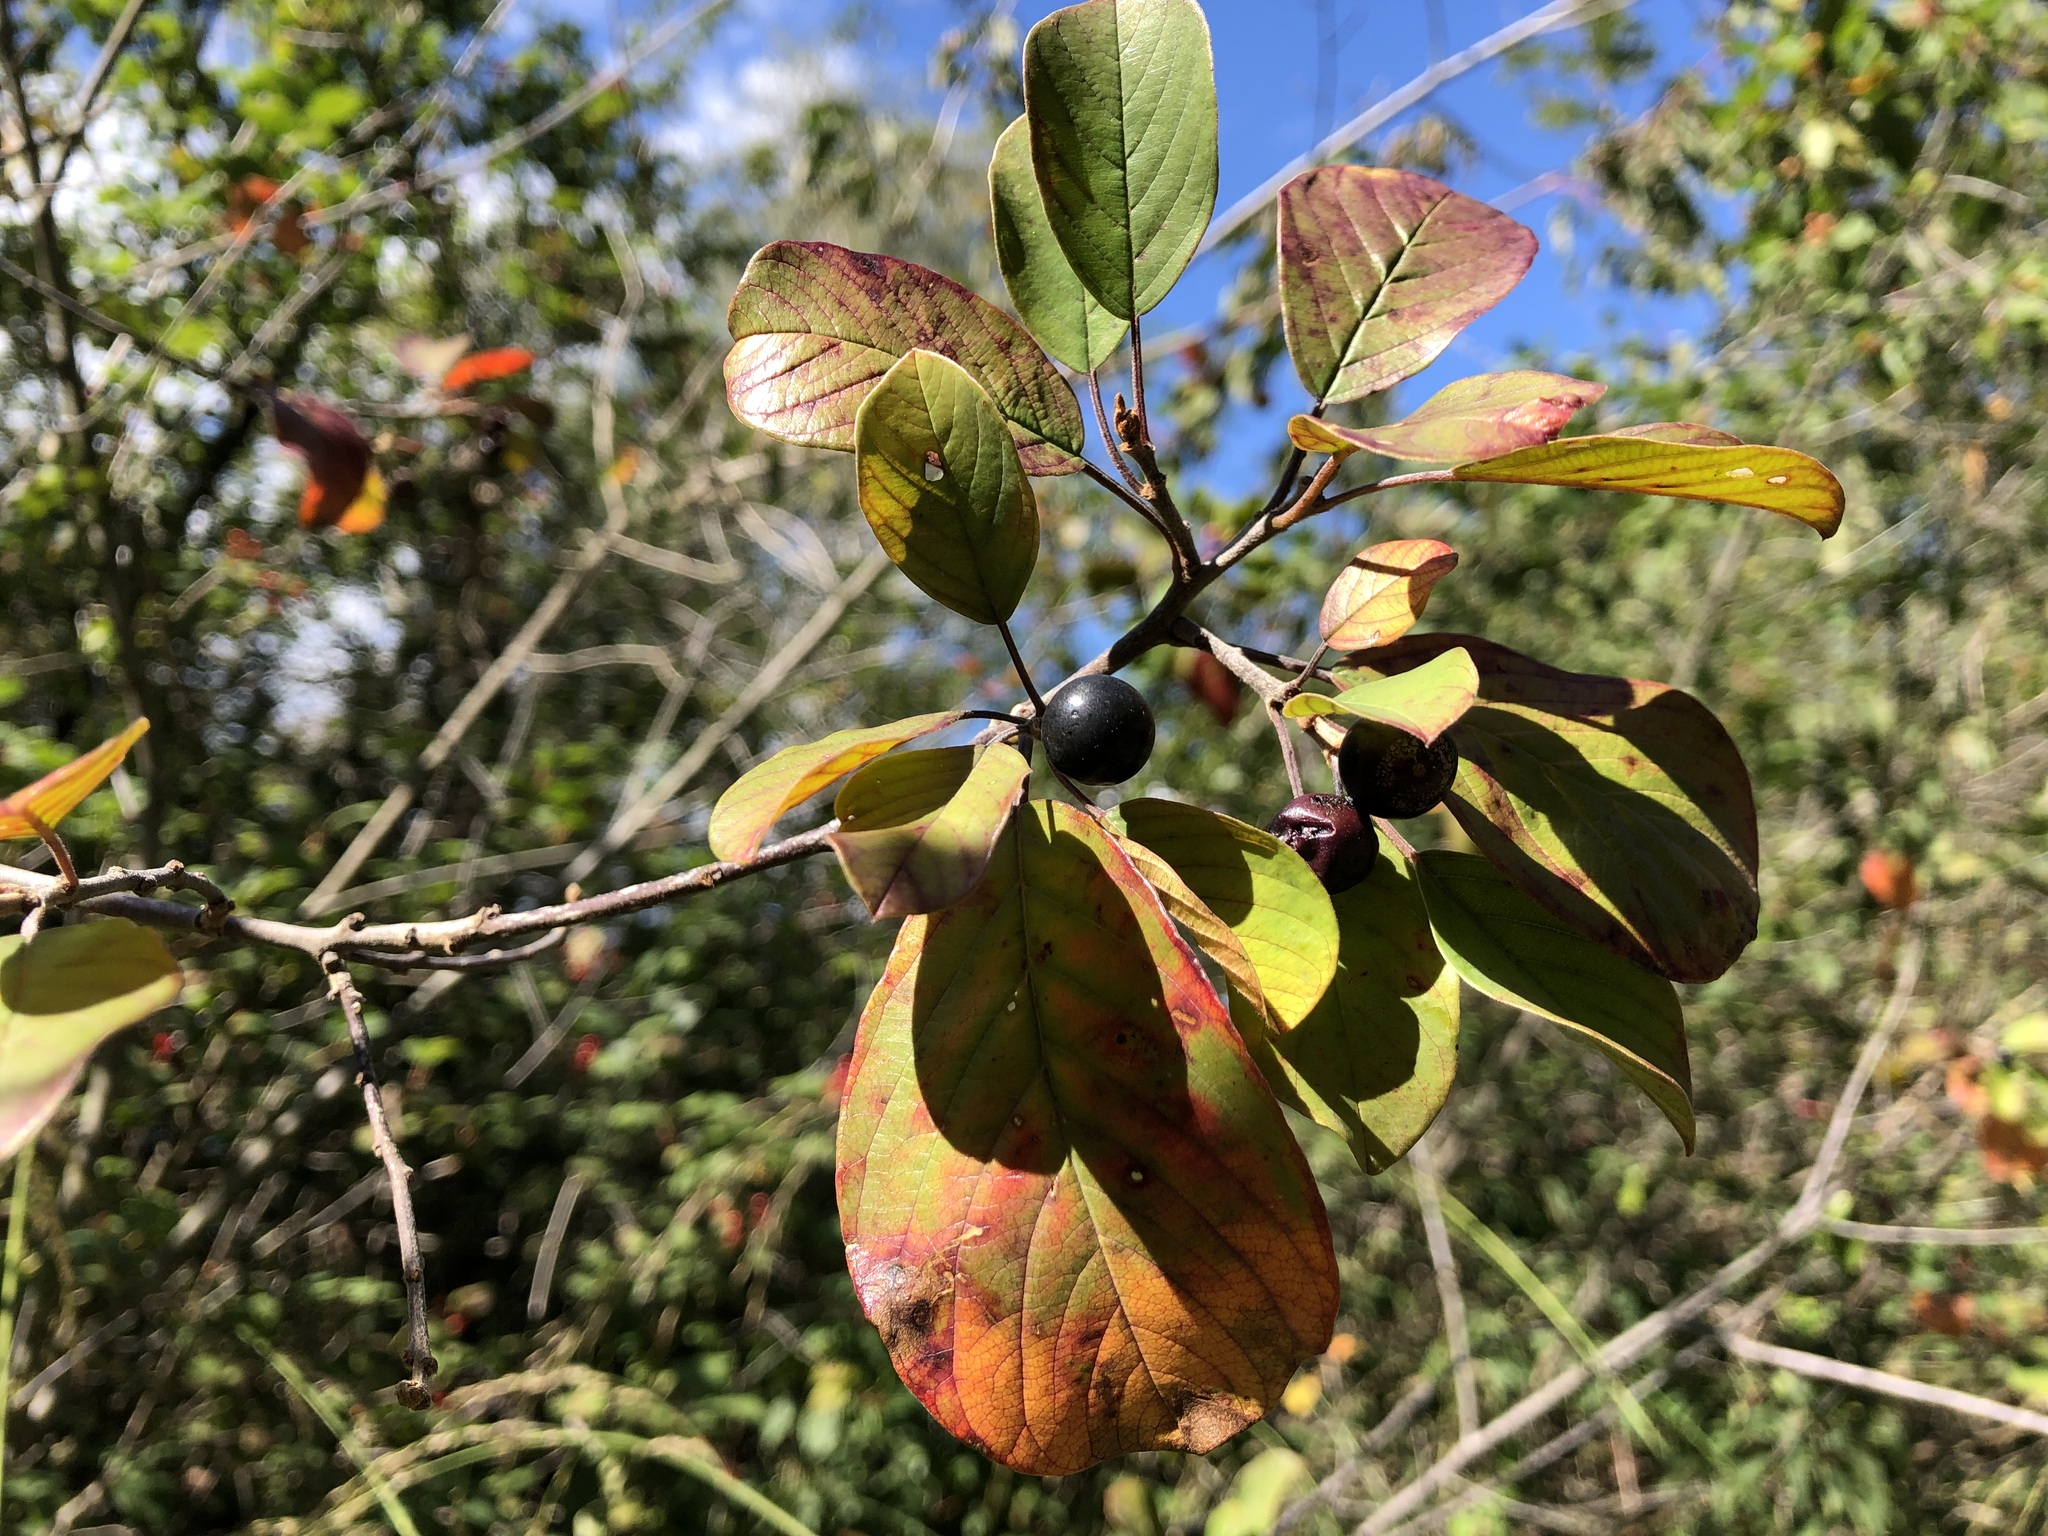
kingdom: Plantae
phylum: Tracheophyta
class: Magnoliopsida
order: Rosales
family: Rhamnaceae
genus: Frangula
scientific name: Frangula alnus
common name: Alder buckthorn
